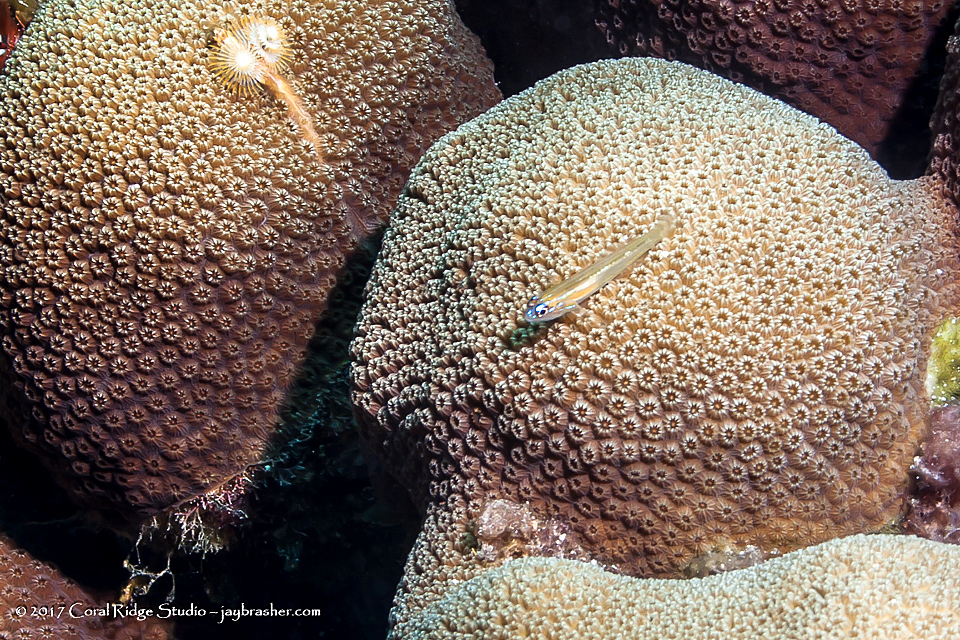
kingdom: Animalia
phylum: Chordata
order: Perciformes
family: Gobiidae
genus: Coryphopterus
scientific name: Coryphopterus lipernes
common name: Peppermint goby
